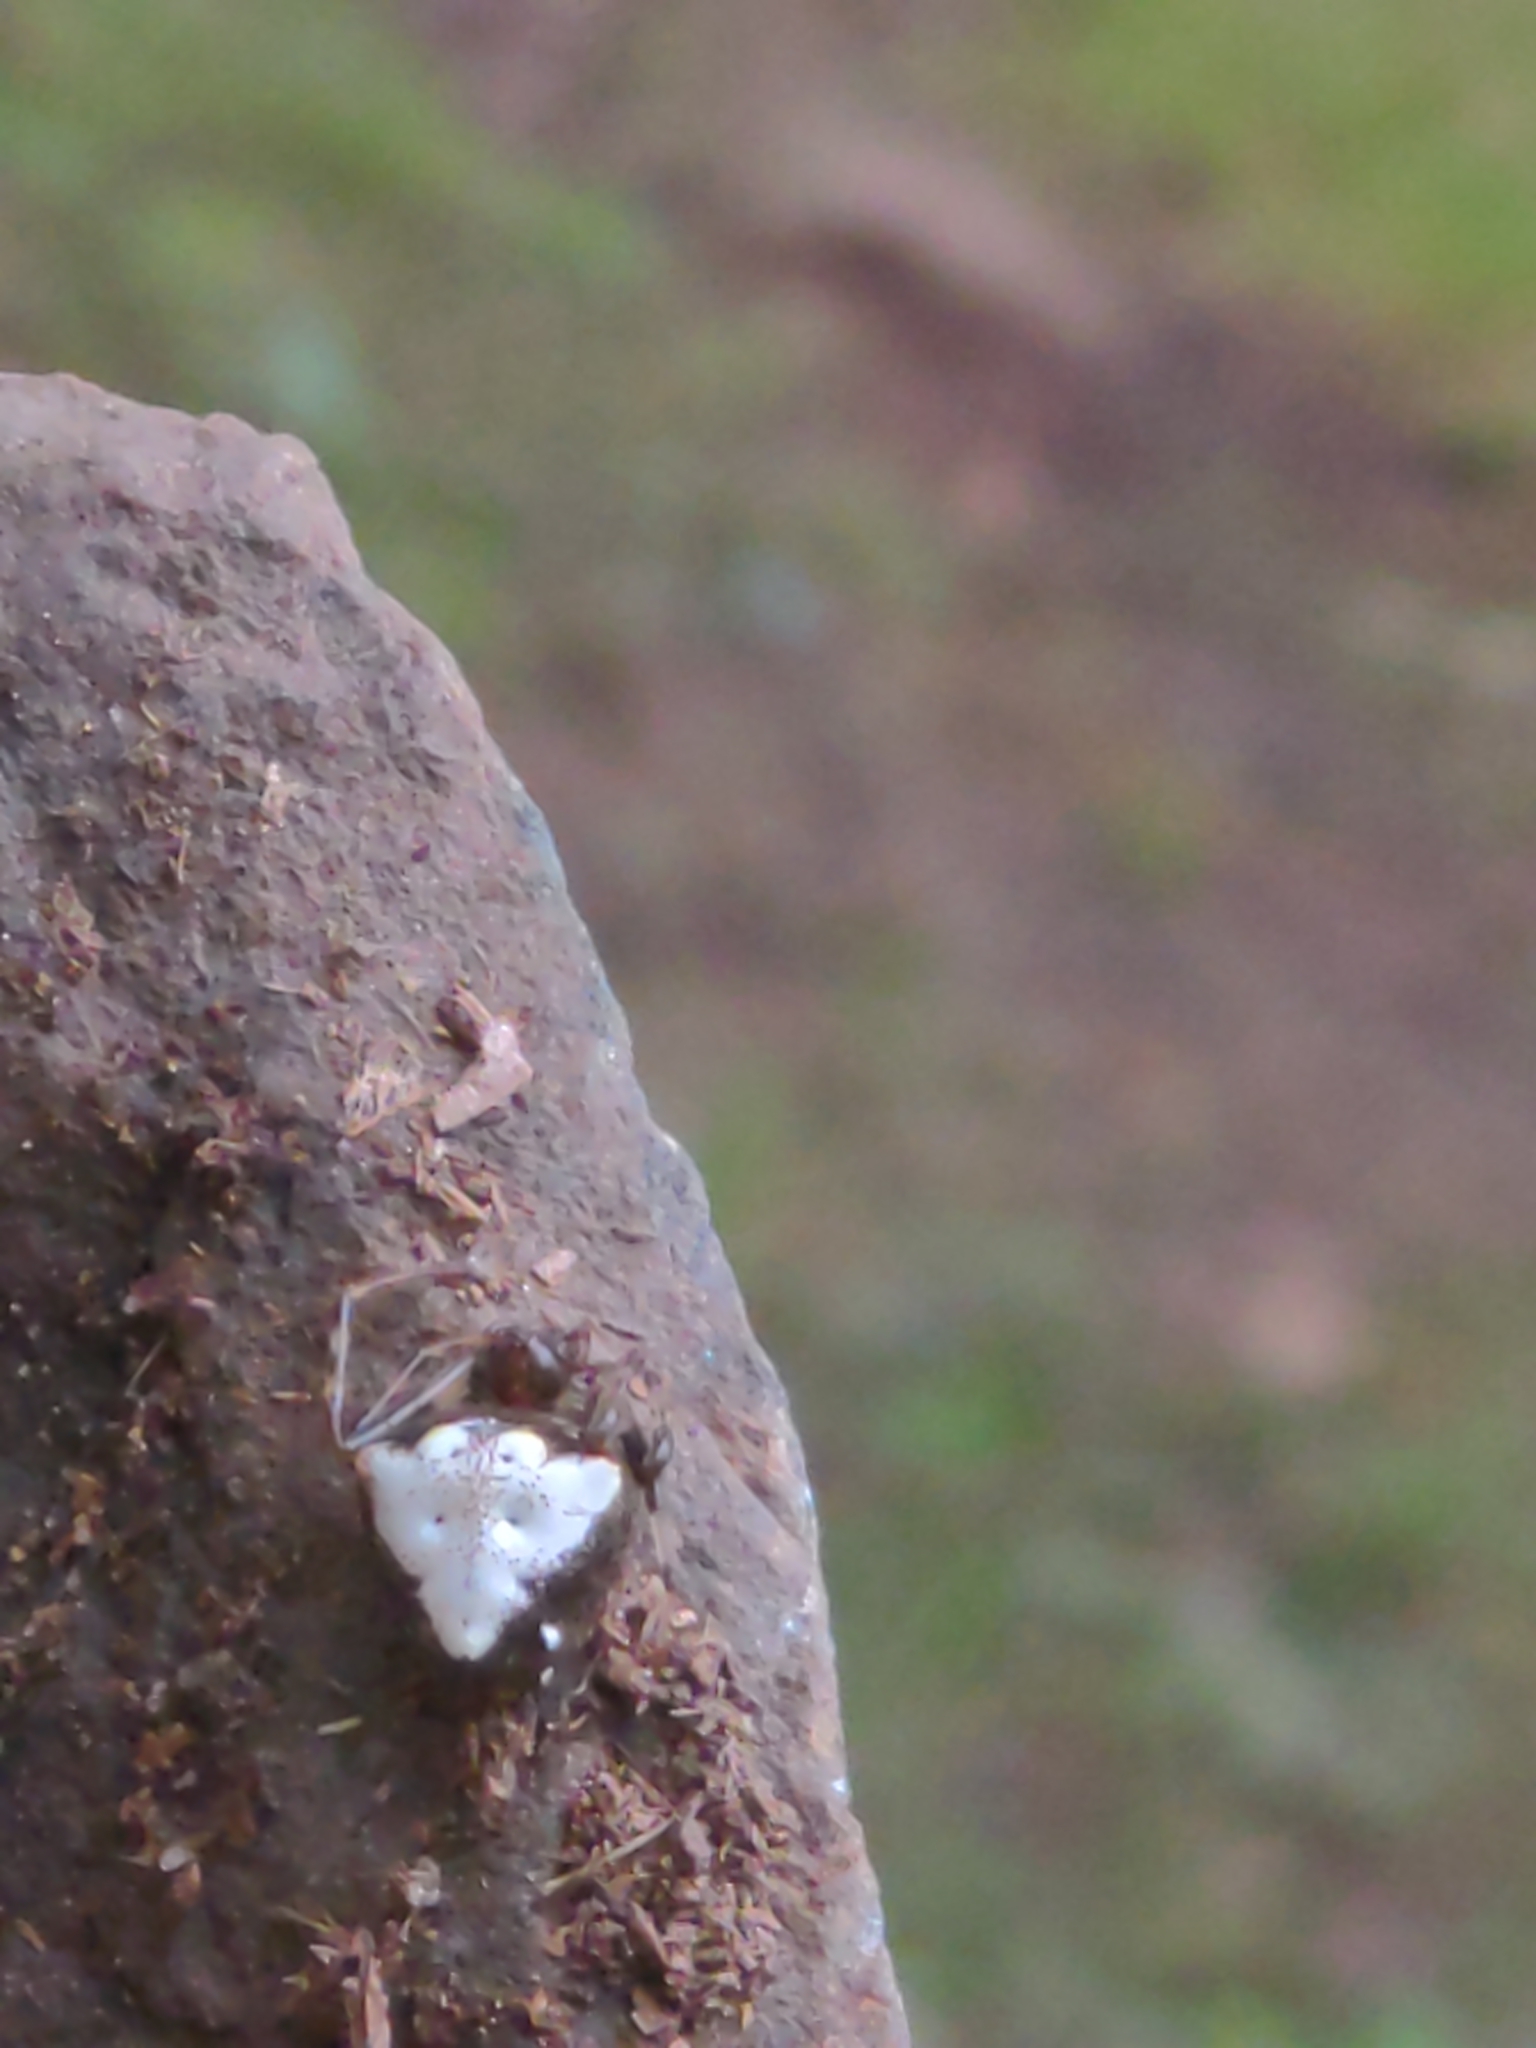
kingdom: Animalia
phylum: Arthropoda
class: Arachnida
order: Araneae
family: Araneidae
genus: Verrucosa
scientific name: Verrucosa arenata
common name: Orb weavers
